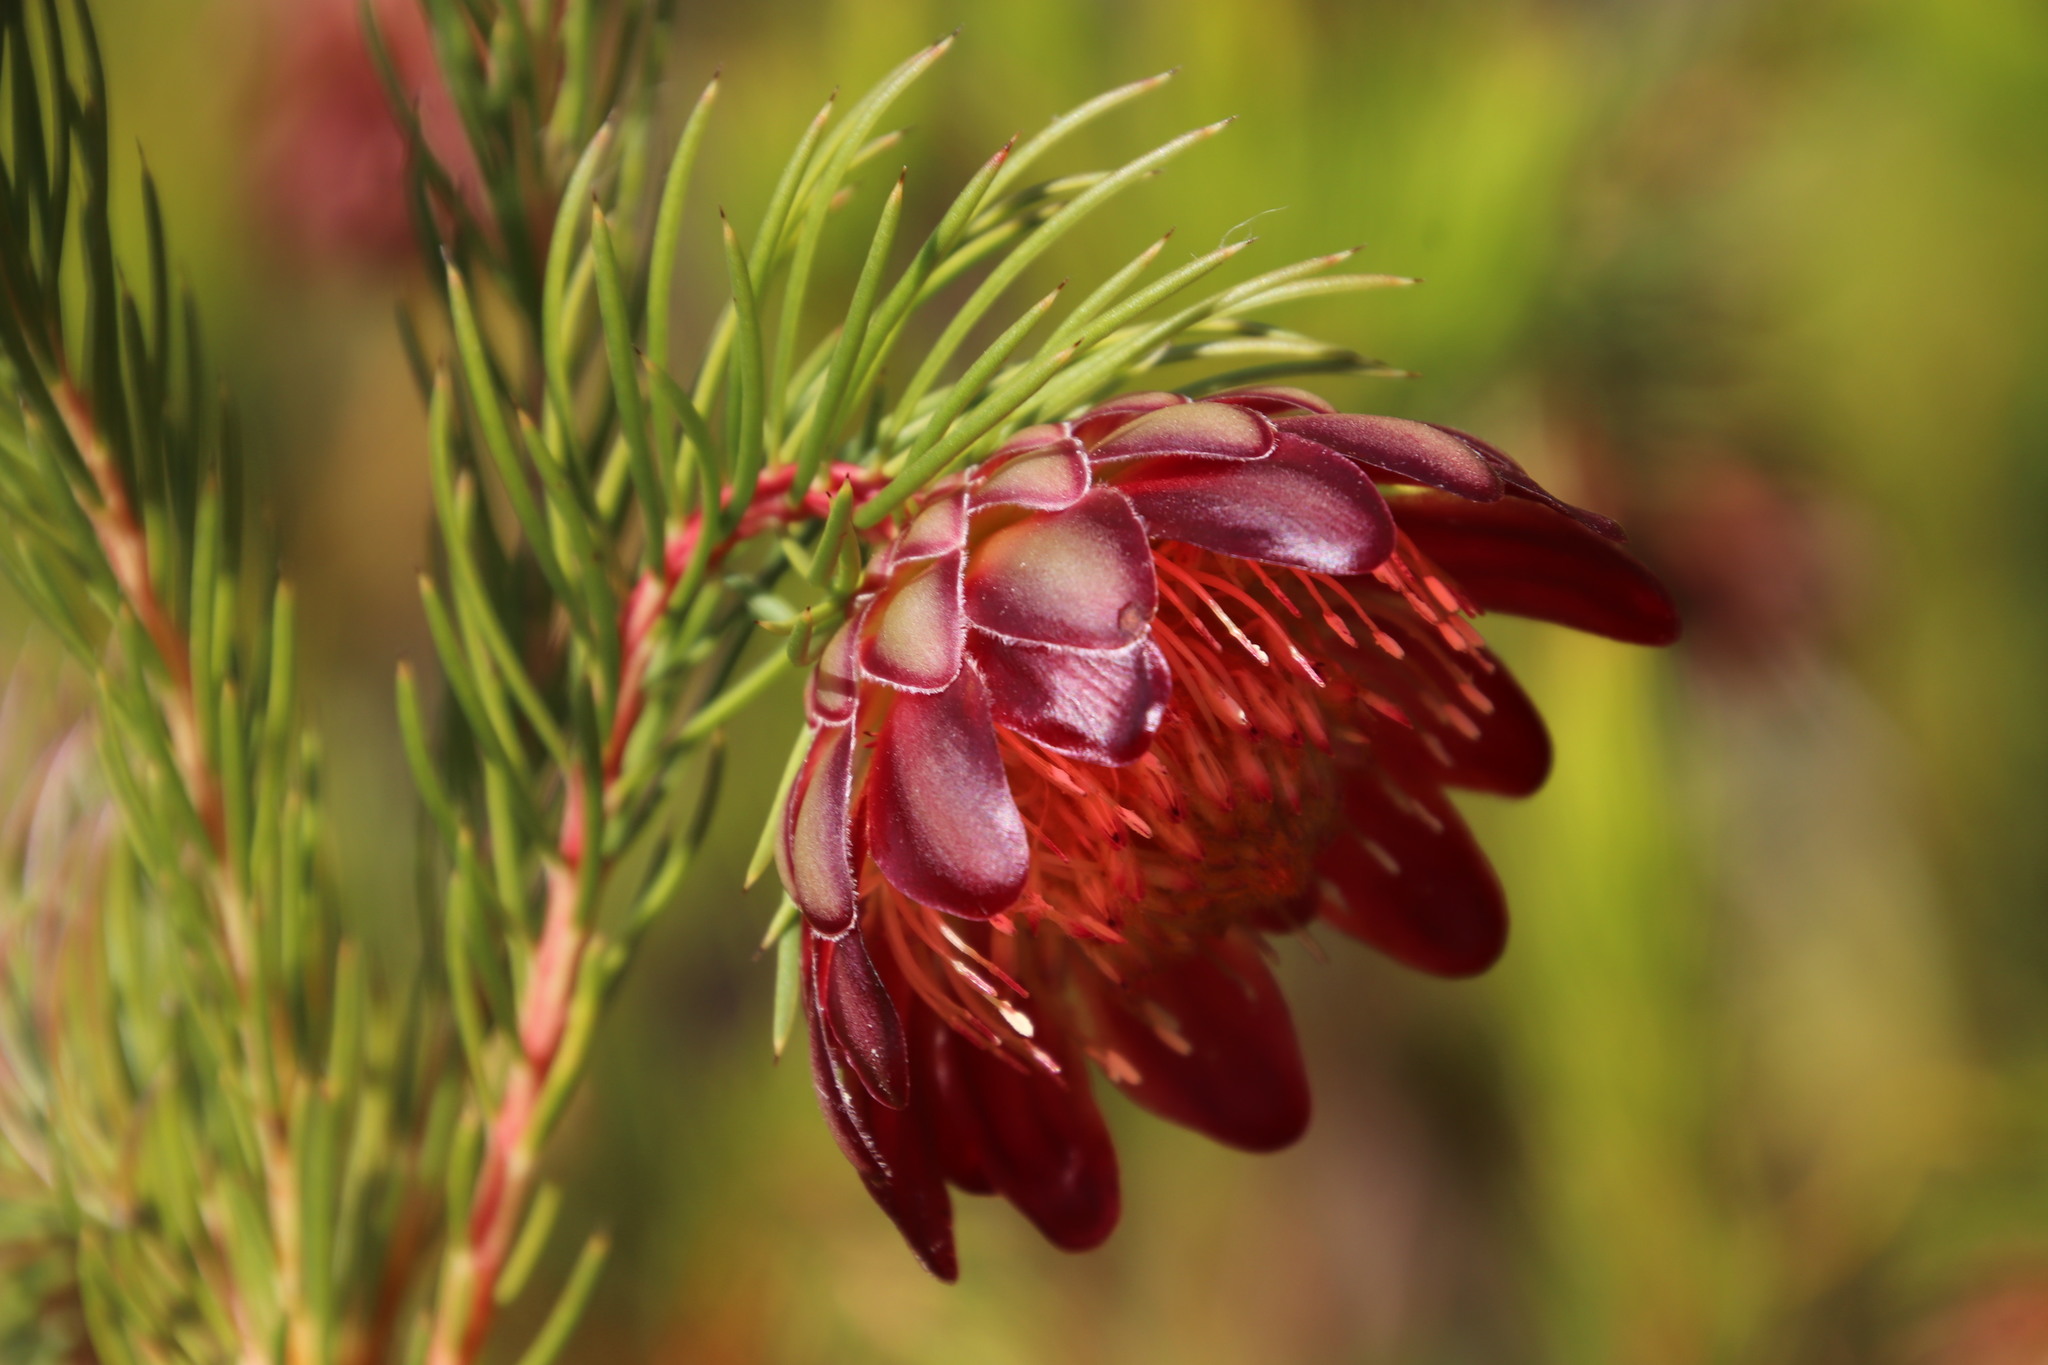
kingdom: Plantae
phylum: Tracheophyta
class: Magnoliopsida
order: Proteales
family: Proteaceae
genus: Protea
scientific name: Protea nana
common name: Mountain rose
